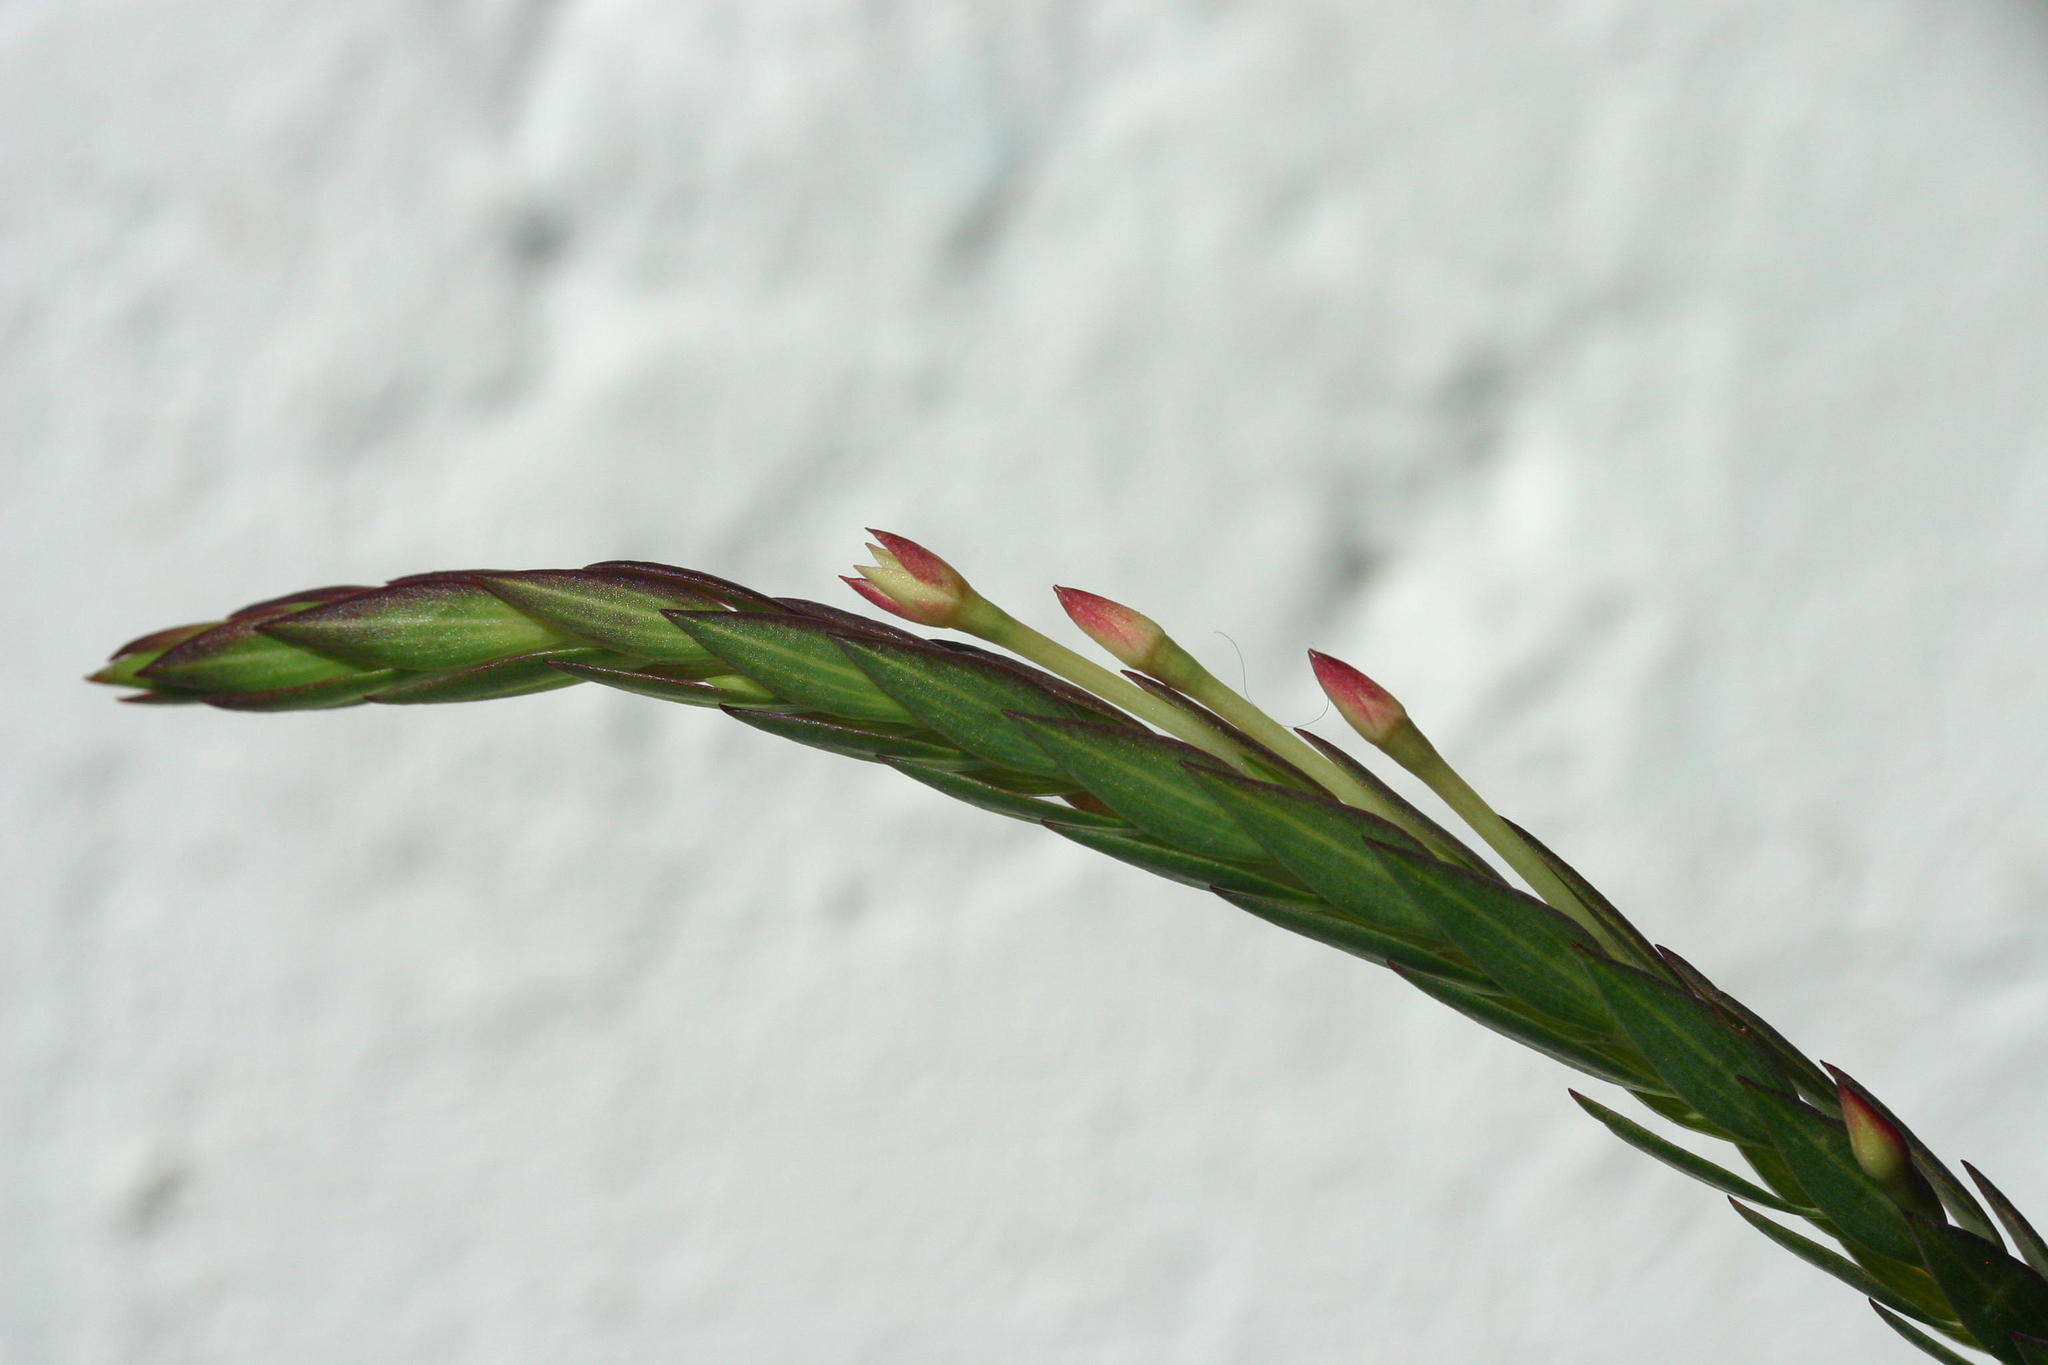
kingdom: Plantae
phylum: Tracheophyta
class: Magnoliopsida
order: Malvales
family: Thymelaeaceae
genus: Struthiola
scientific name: Struthiola myrsinites
